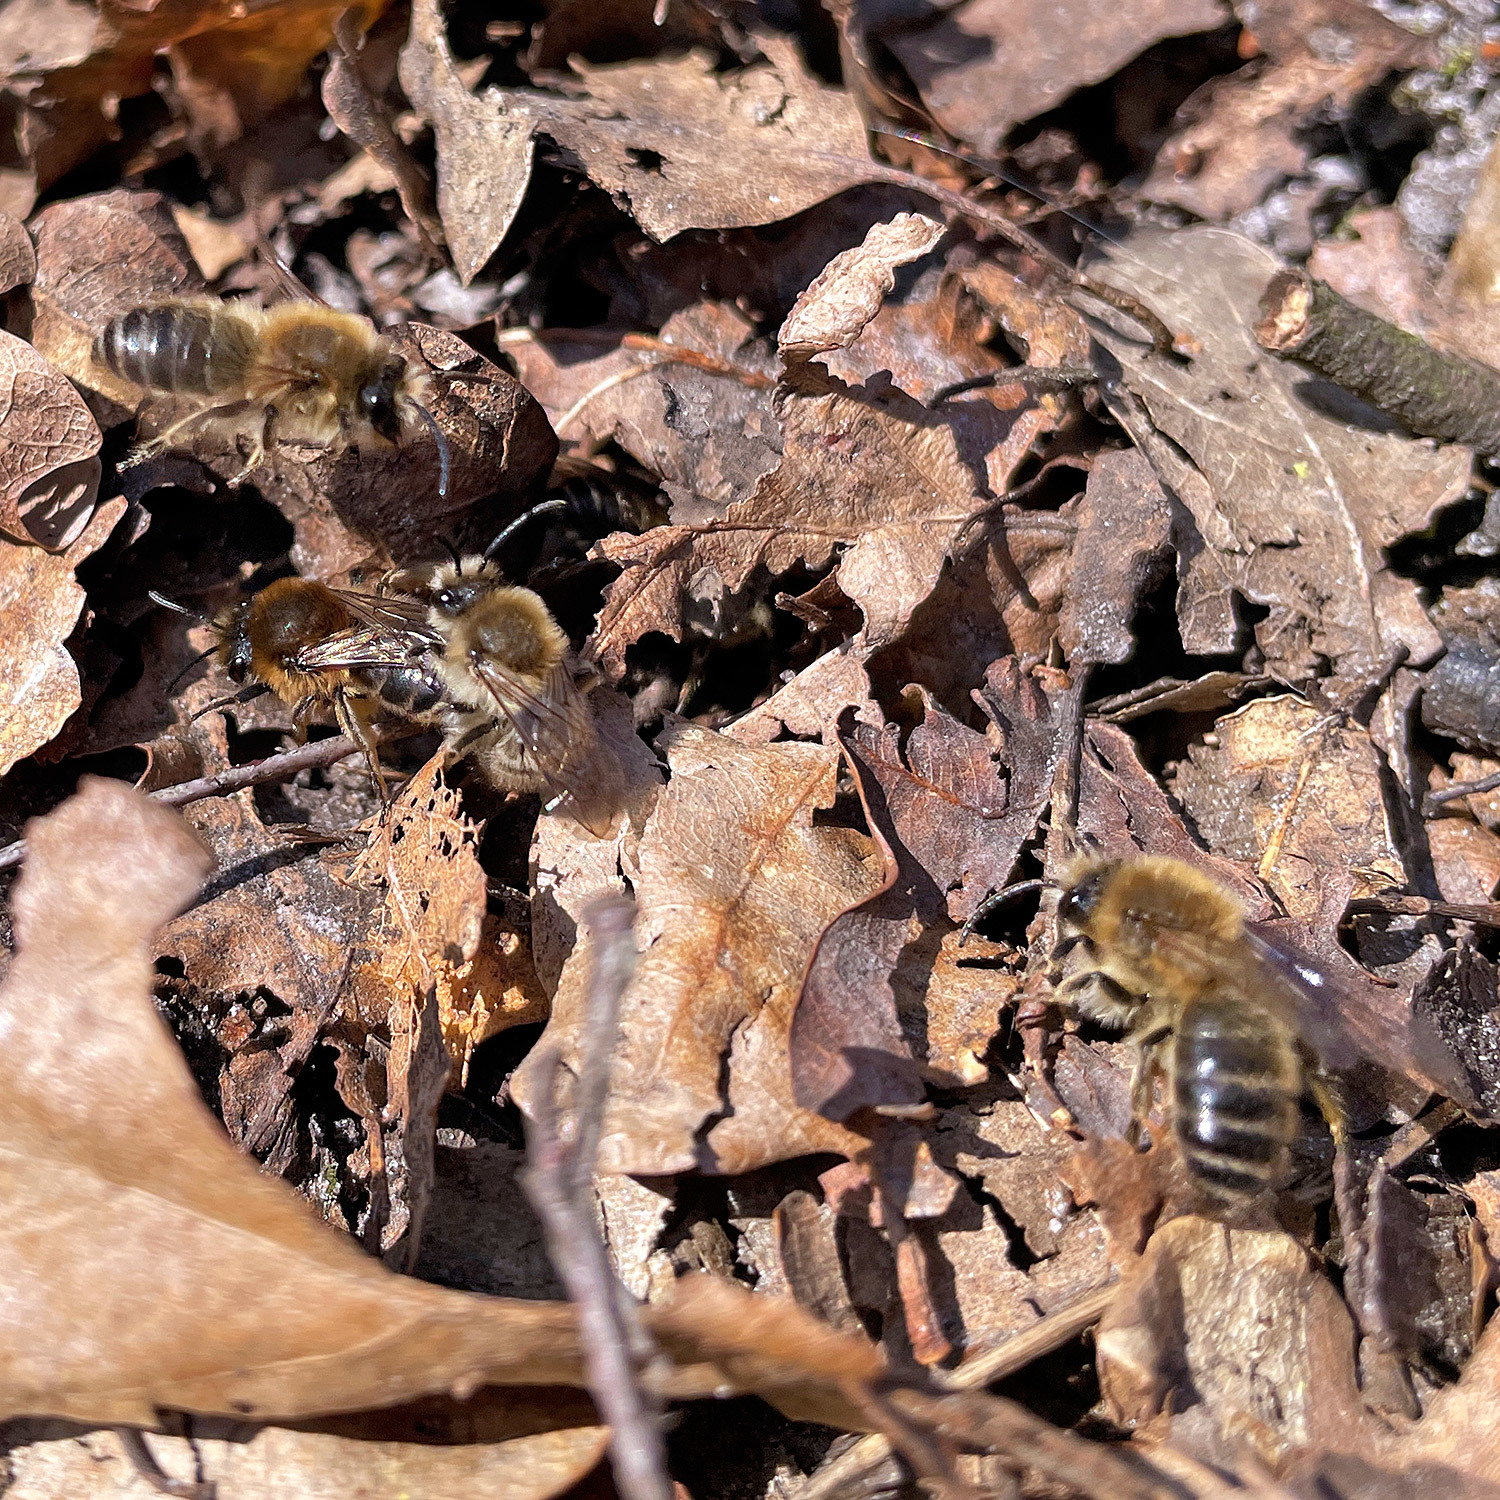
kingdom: Animalia
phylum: Arthropoda
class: Insecta
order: Hymenoptera
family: Colletidae
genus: Colletes
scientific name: Colletes cunicularius
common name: Early colletes
